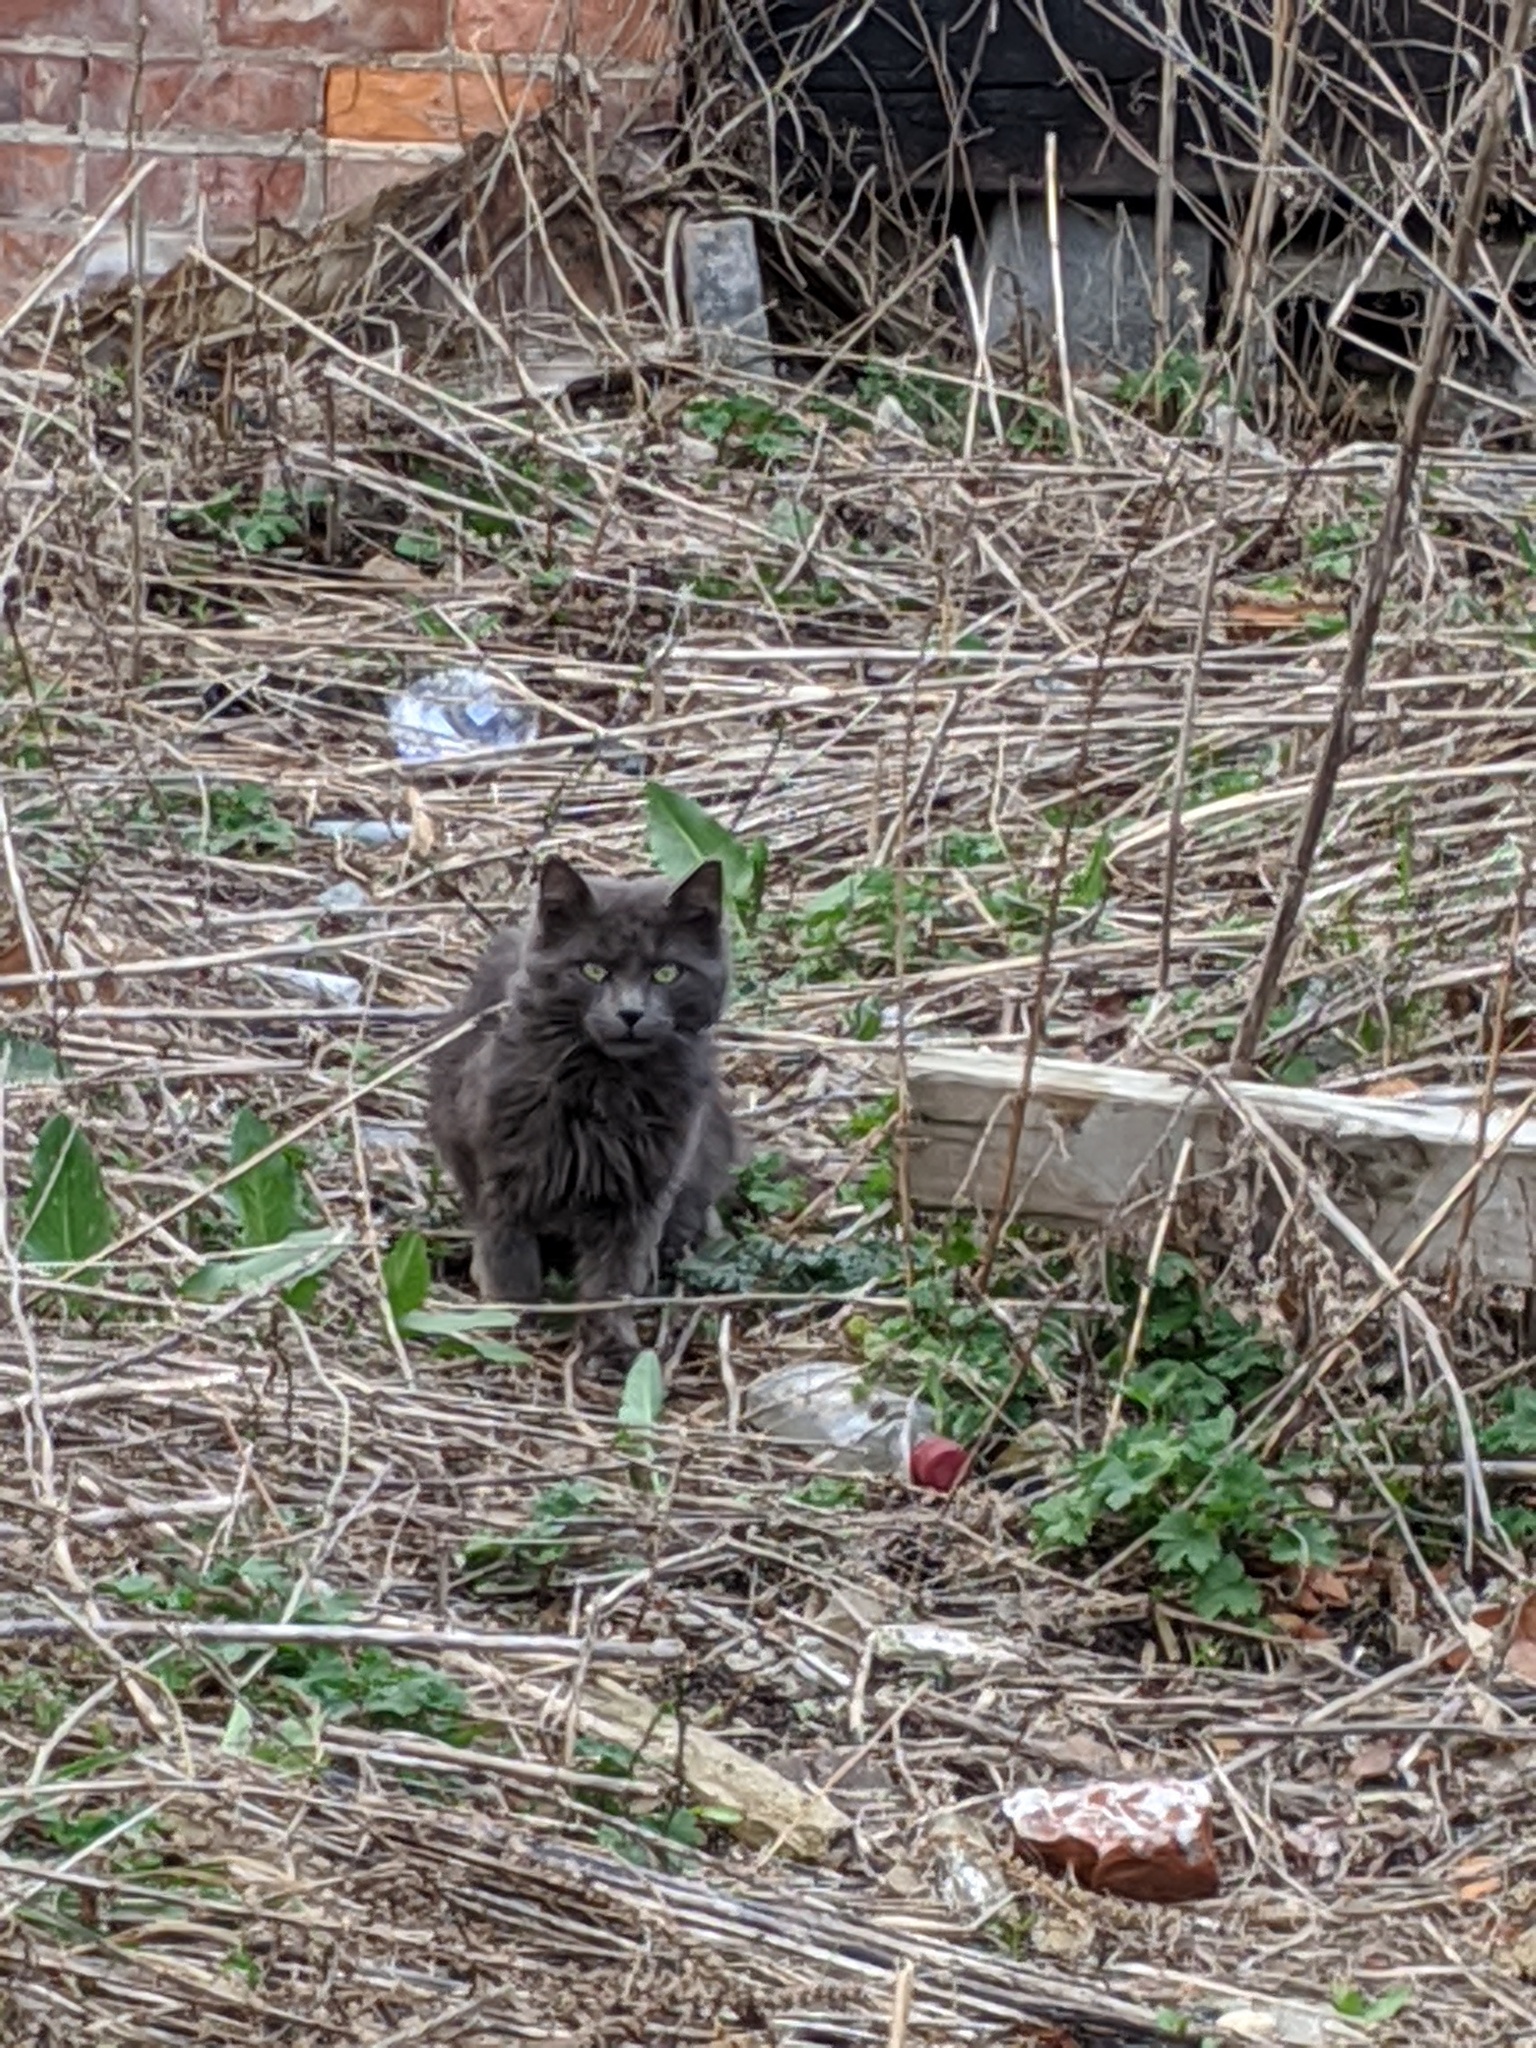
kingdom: Animalia
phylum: Chordata
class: Mammalia
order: Carnivora
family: Felidae
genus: Felis
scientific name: Felis catus
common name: Domestic cat
